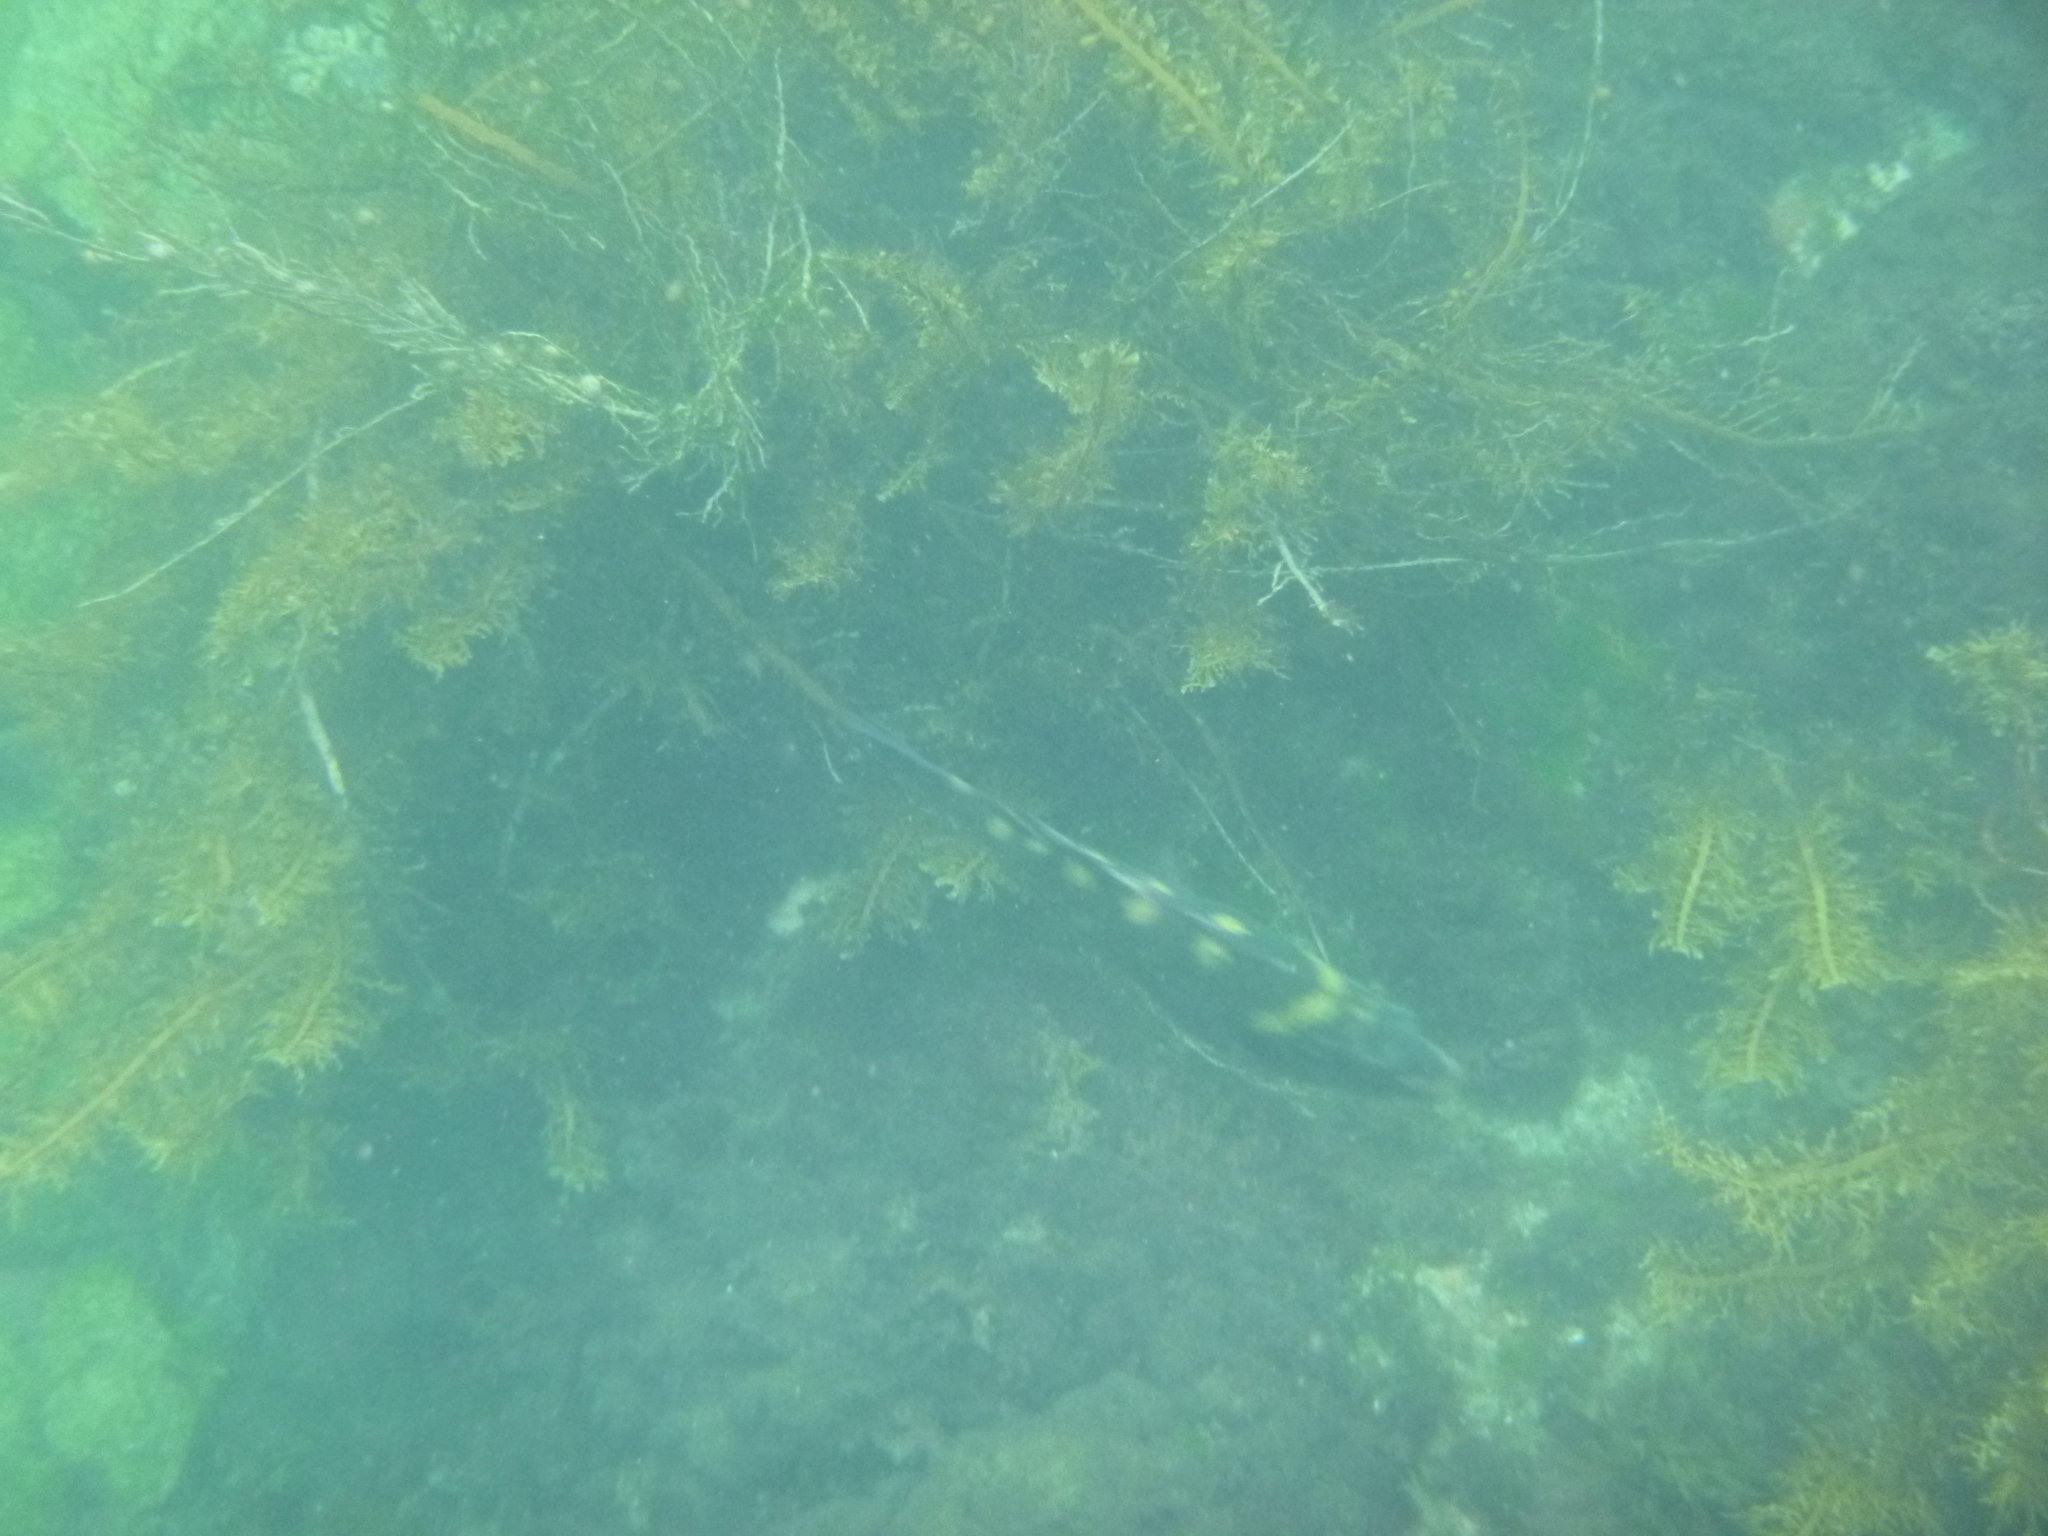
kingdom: Animalia
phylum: Chordata
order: Perciformes
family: Labridae
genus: Notolabrus
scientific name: Notolabrus fucicola
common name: Banded parrotfish
